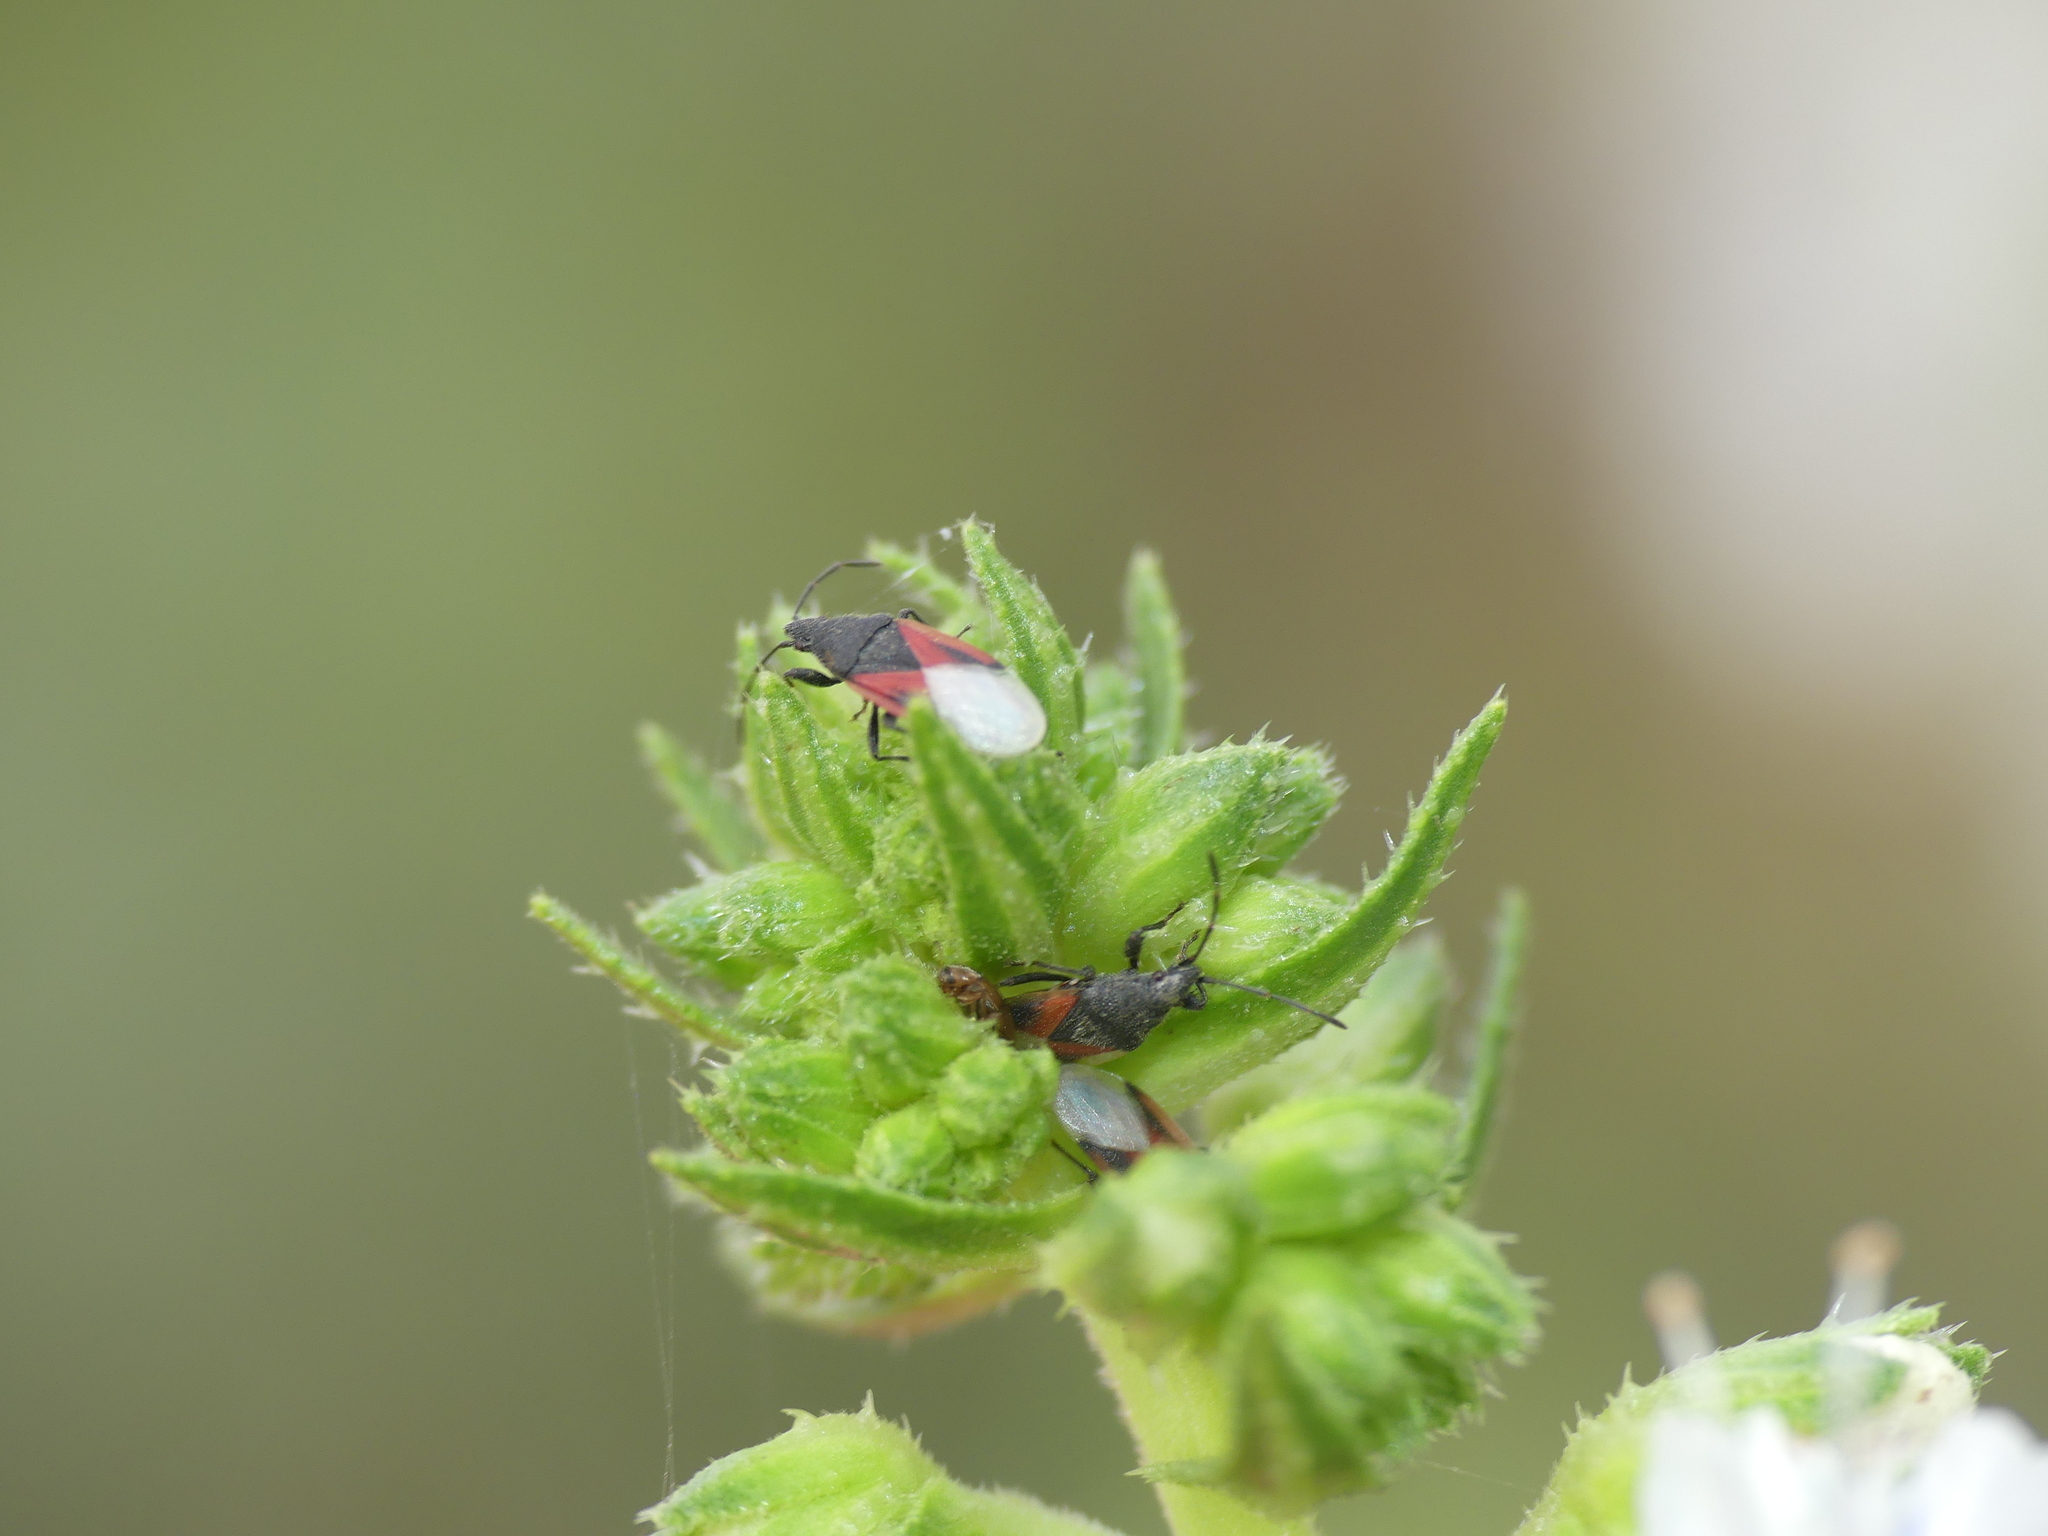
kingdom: Animalia
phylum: Arthropoda
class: Insecta
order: Hemiptera
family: Oxycarenidae
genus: Oxycarenus
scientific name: Oxycarenus lavaterae
